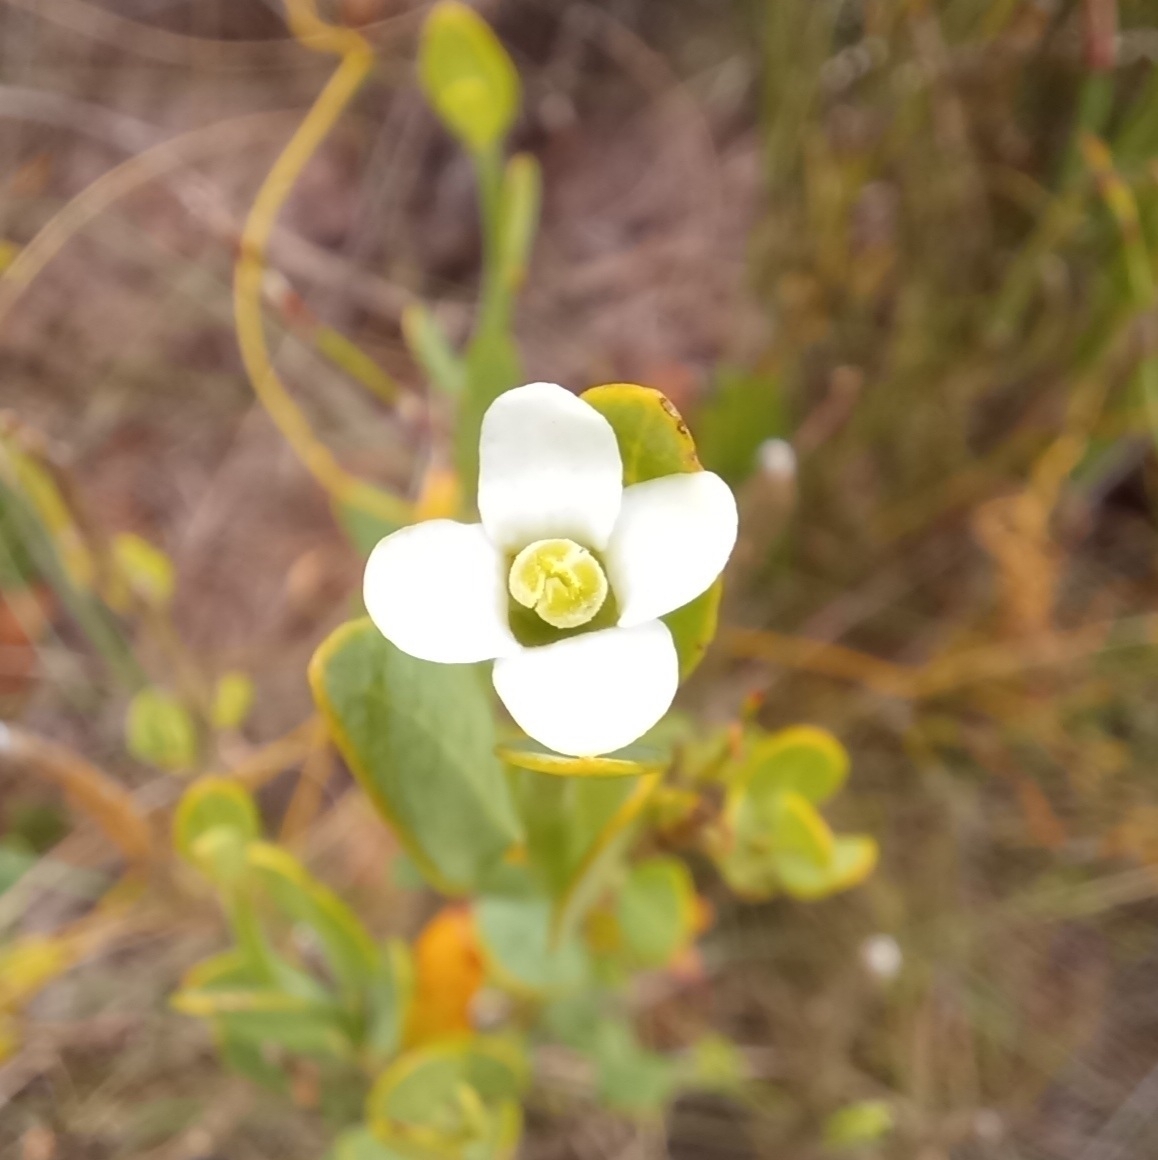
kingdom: Plantae
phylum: Tracheophyta
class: Magnoliopsida
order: Solanales
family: Montiniaceae
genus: Montinia
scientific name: Montinia caryophyllacea
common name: Wild clove-bush
